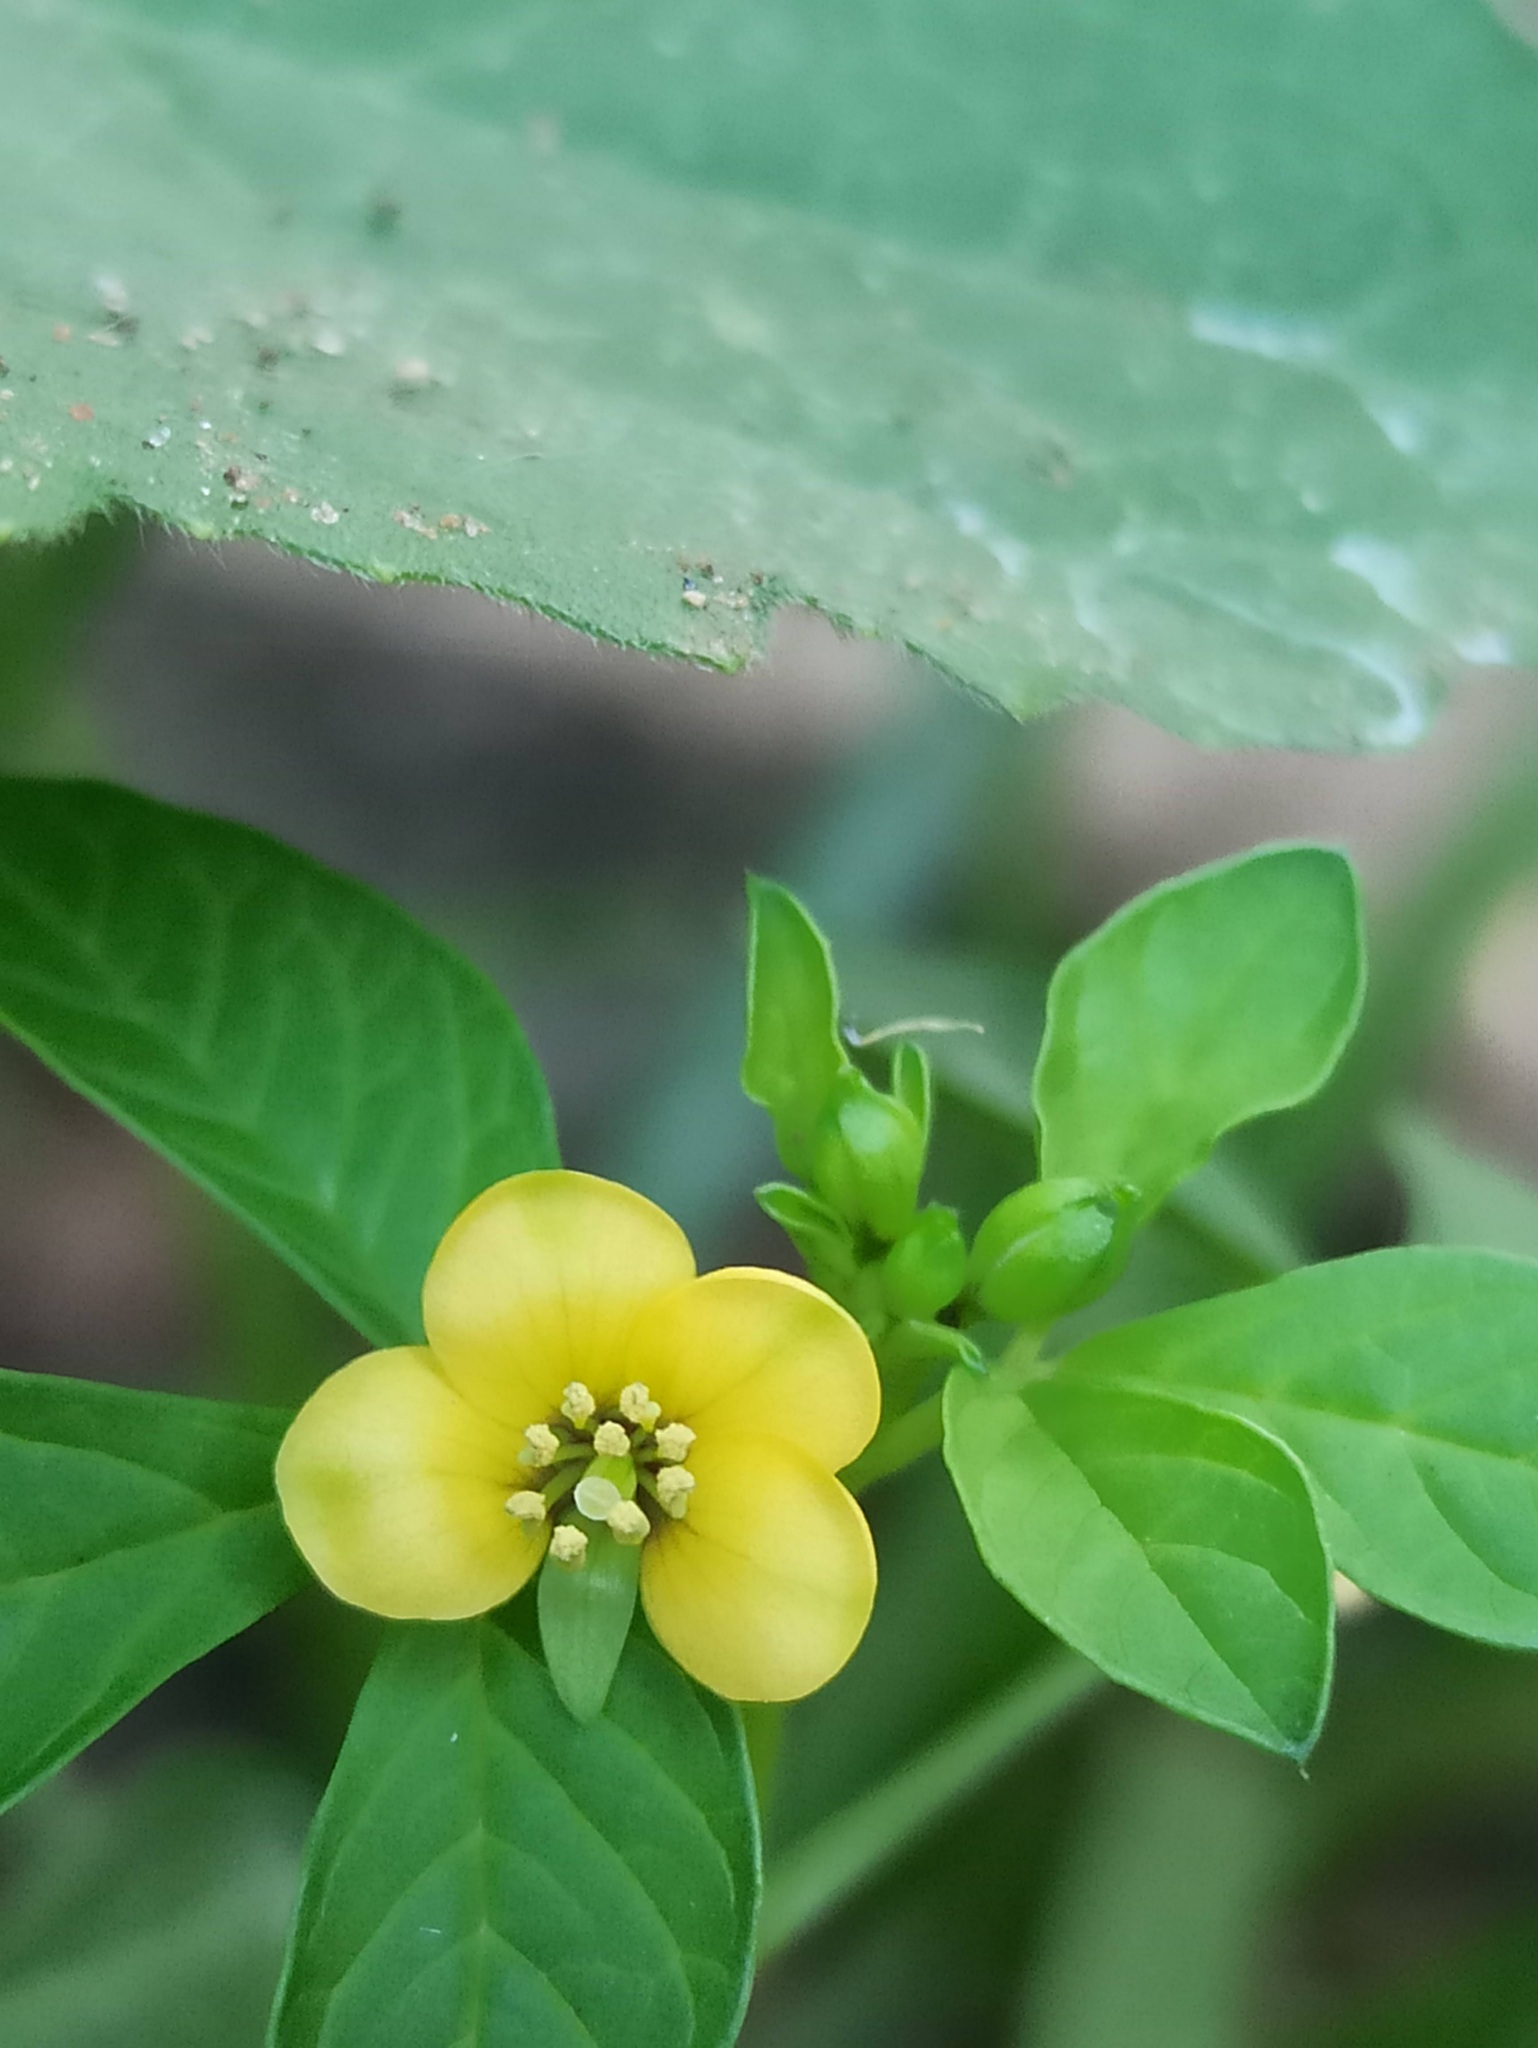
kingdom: Plantae
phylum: Tracheophyta
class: Magnoliopsida
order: Brassicales
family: Cleomaceae
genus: Arivela
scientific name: Arivela viscosa
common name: Asian spiderflower
